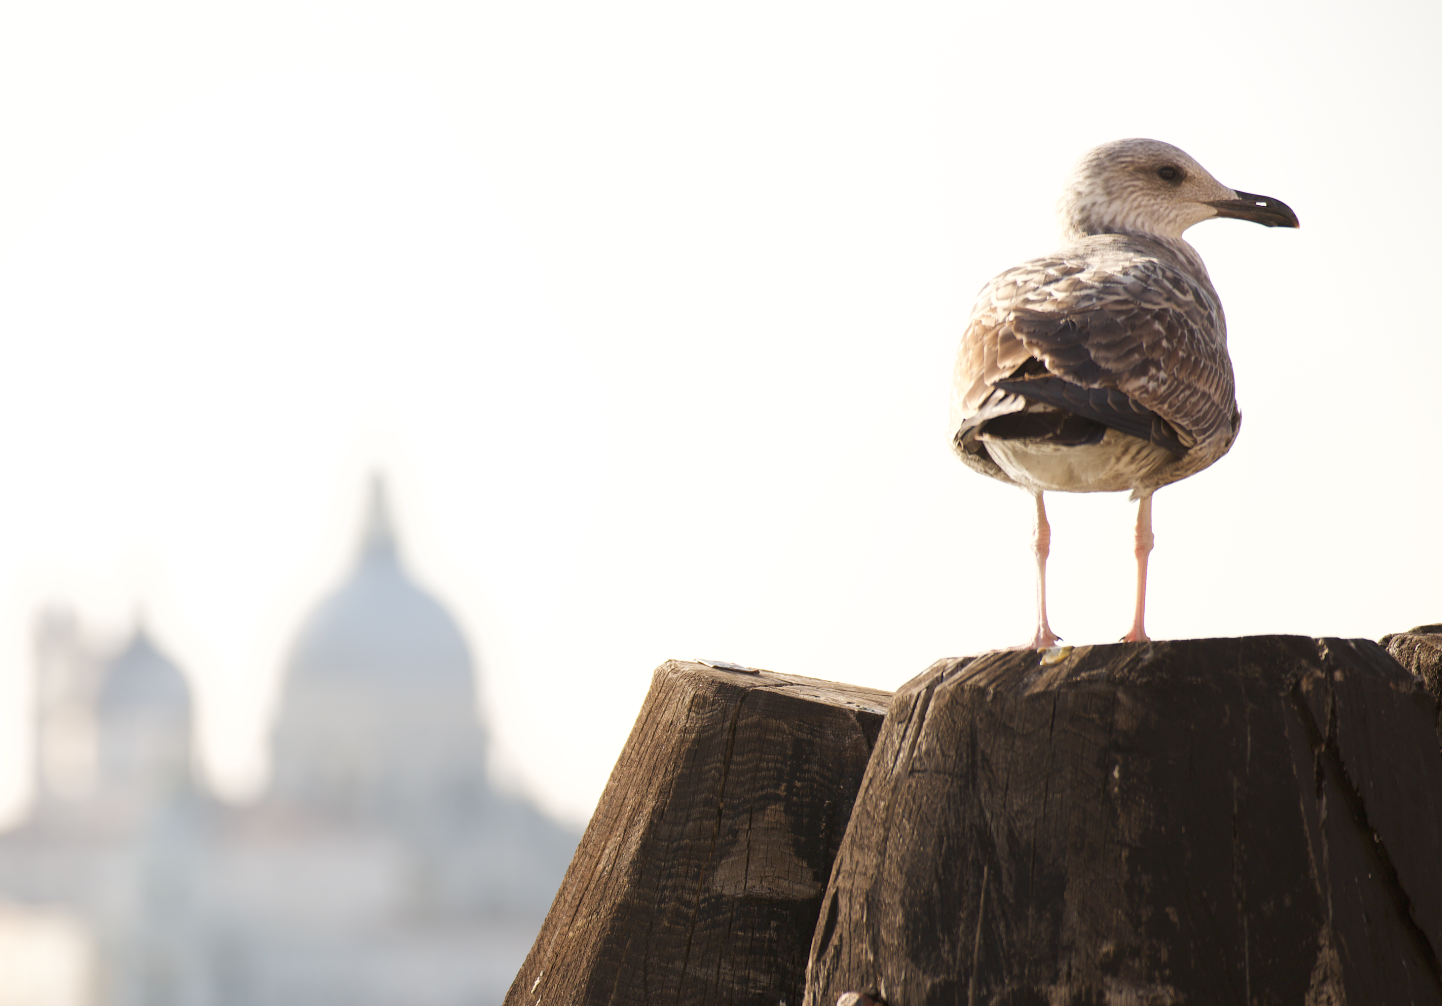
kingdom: Animalia
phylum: Chordata
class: Aves
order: Charadriiformes
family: Laridae
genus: Larus
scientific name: Larus michahellis
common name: Yellow-legged gull
